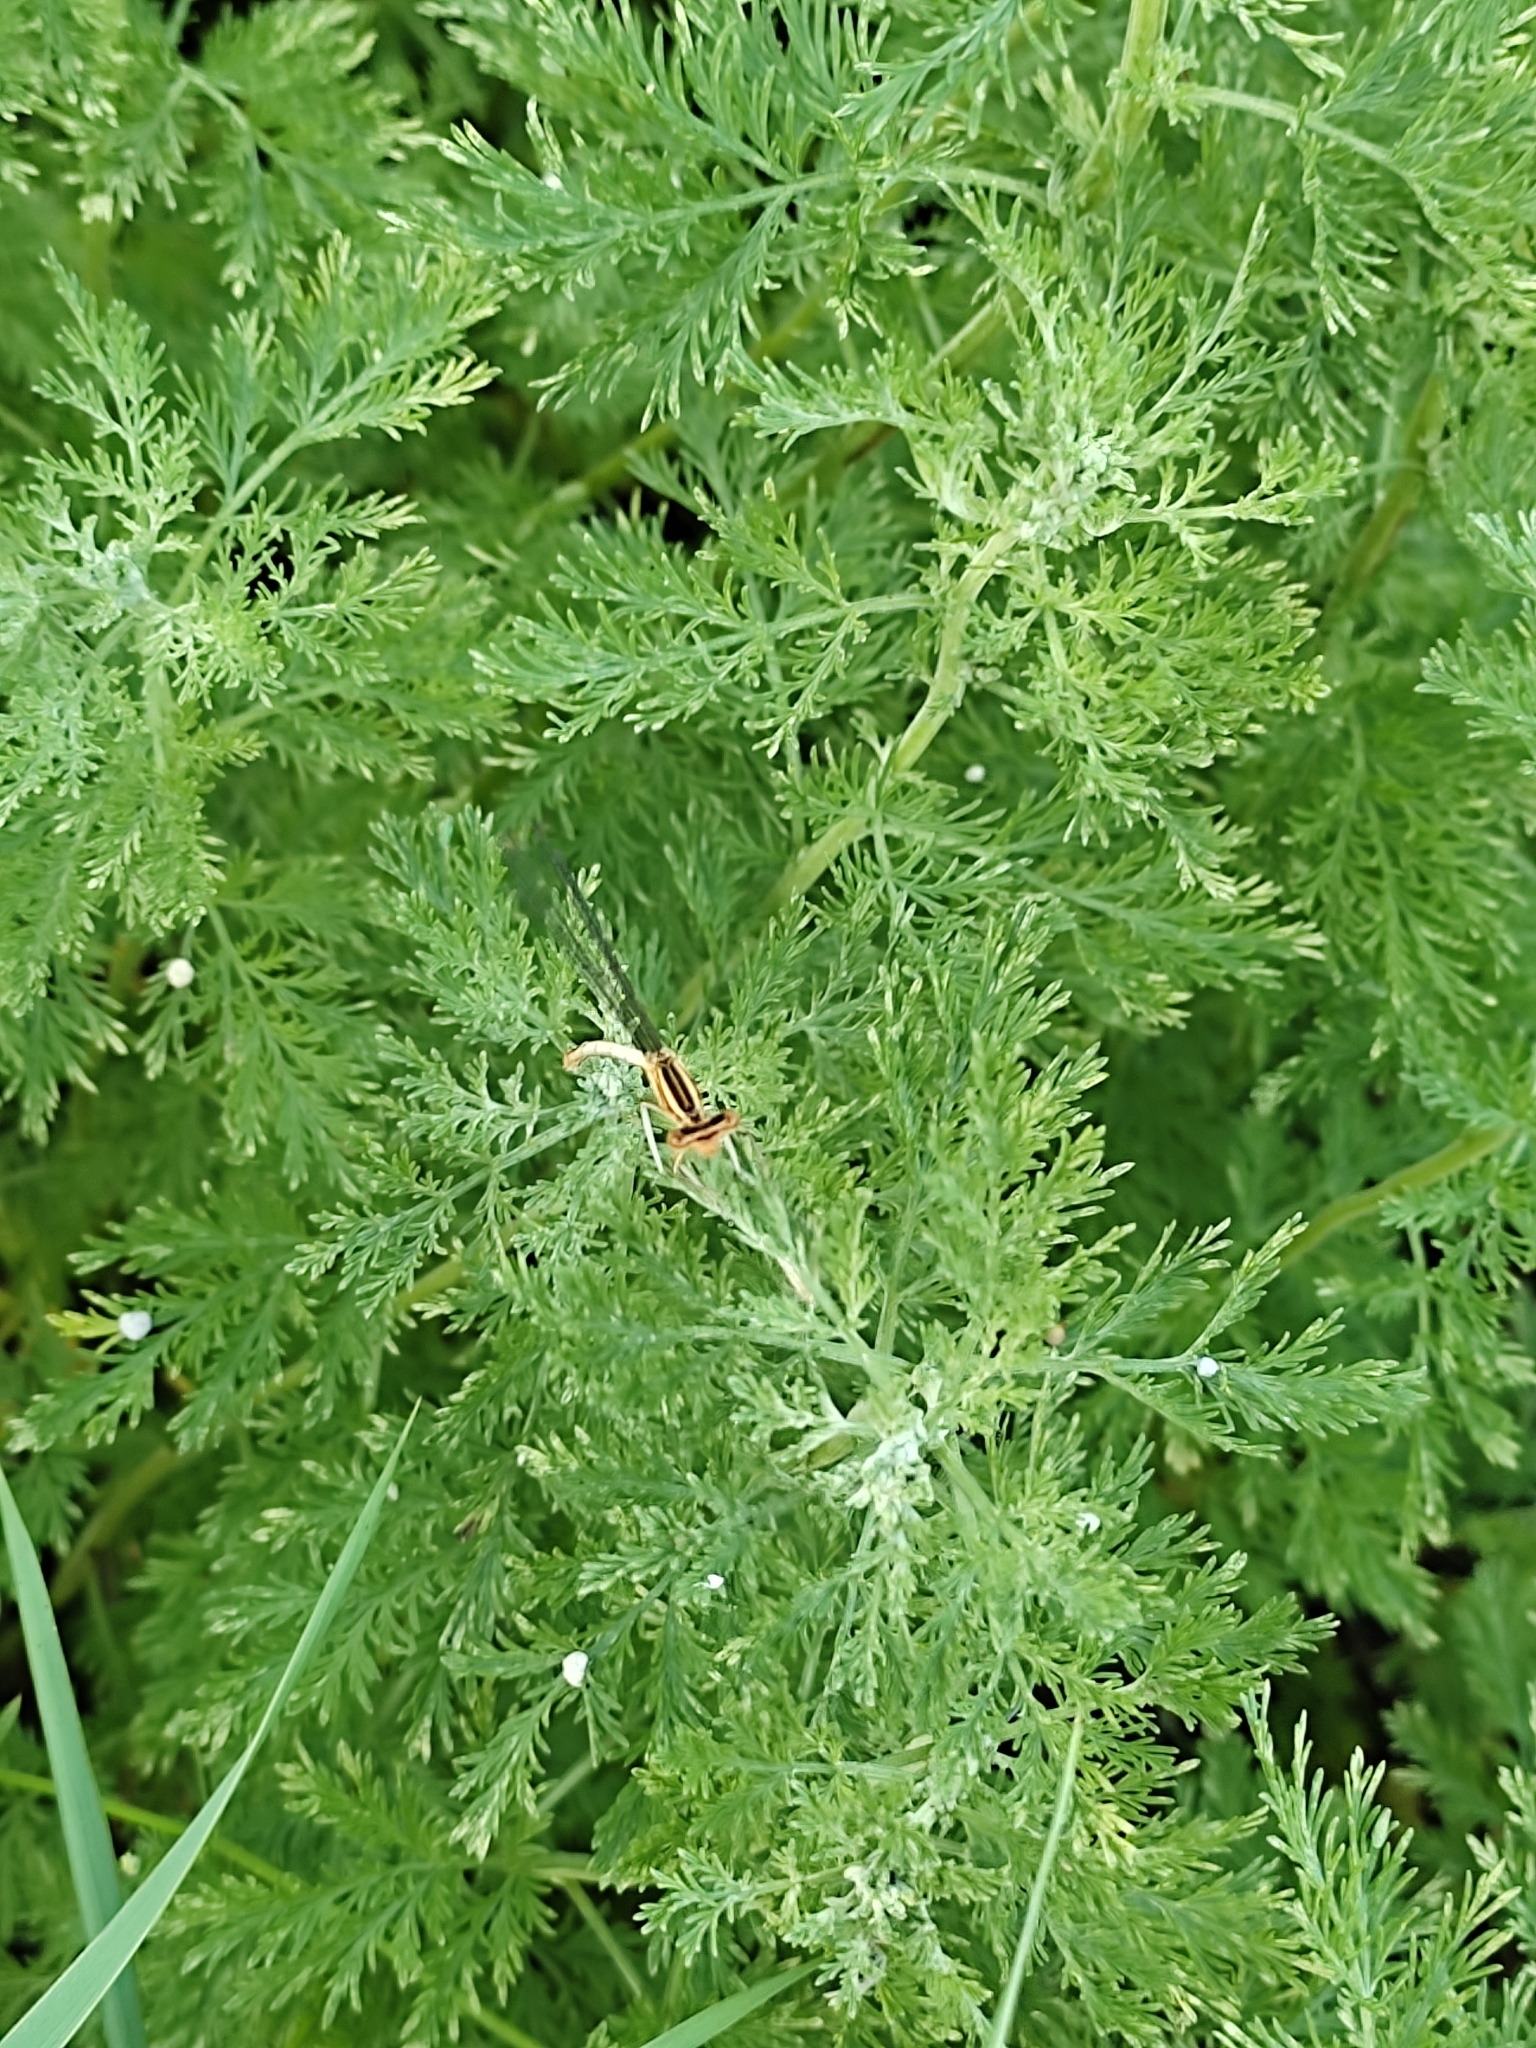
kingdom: Animalia
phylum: Arthropoda
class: Insecta
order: Odonata
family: Platycnemididae
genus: Platycnemis
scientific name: Platycnemis pennipes
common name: White-legged damselfly
